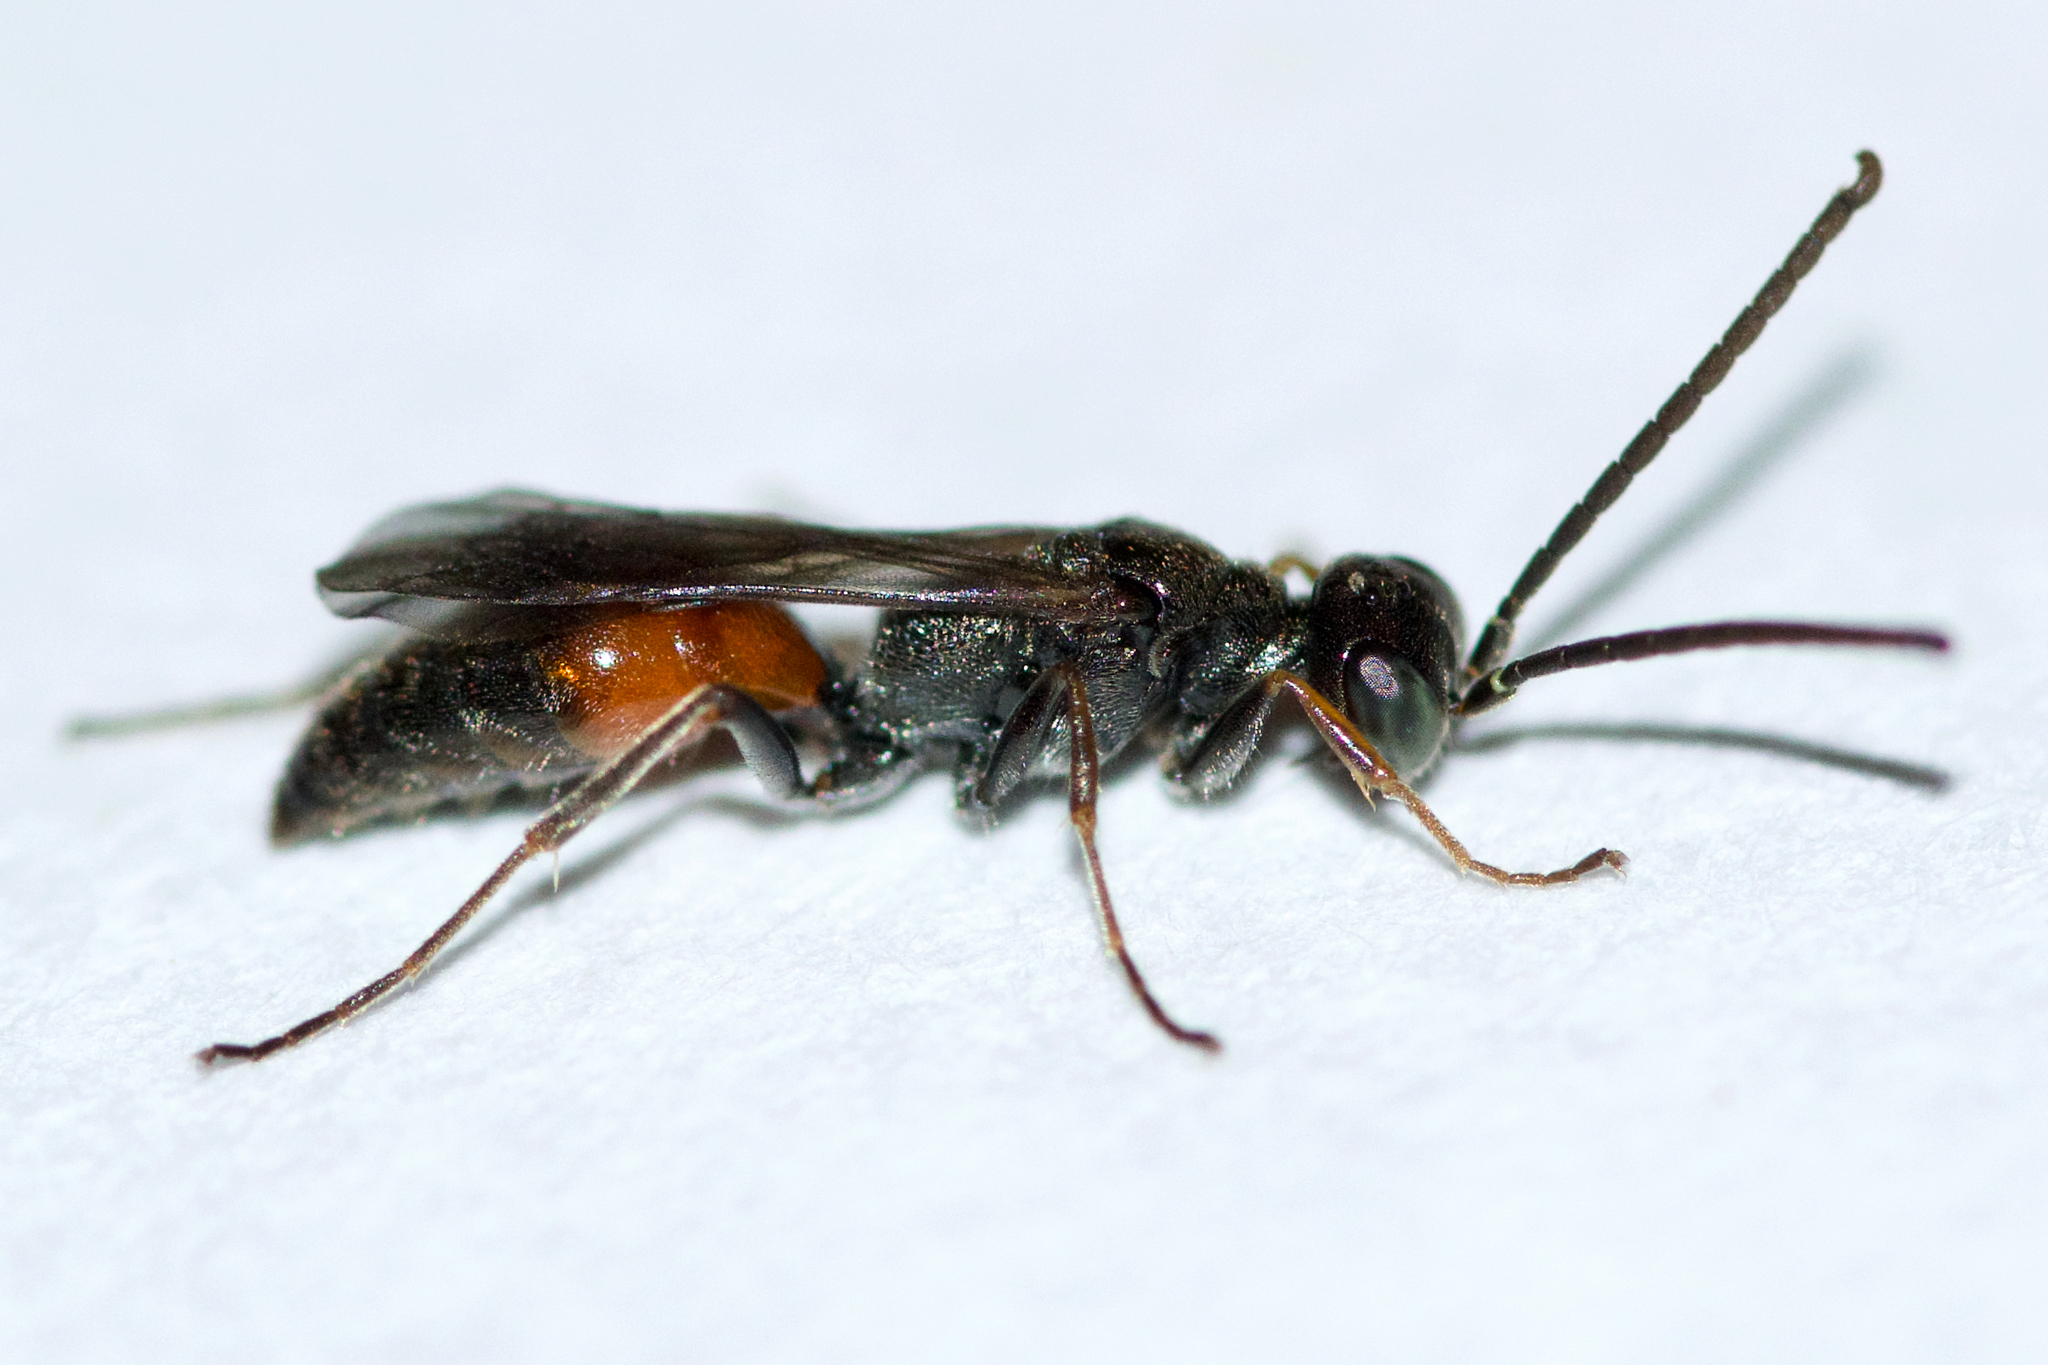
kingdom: Animalia
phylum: Arthropoda
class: Insecta
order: Hymenoptera
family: Crabronidae
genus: Didineis
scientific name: Didineis texana
